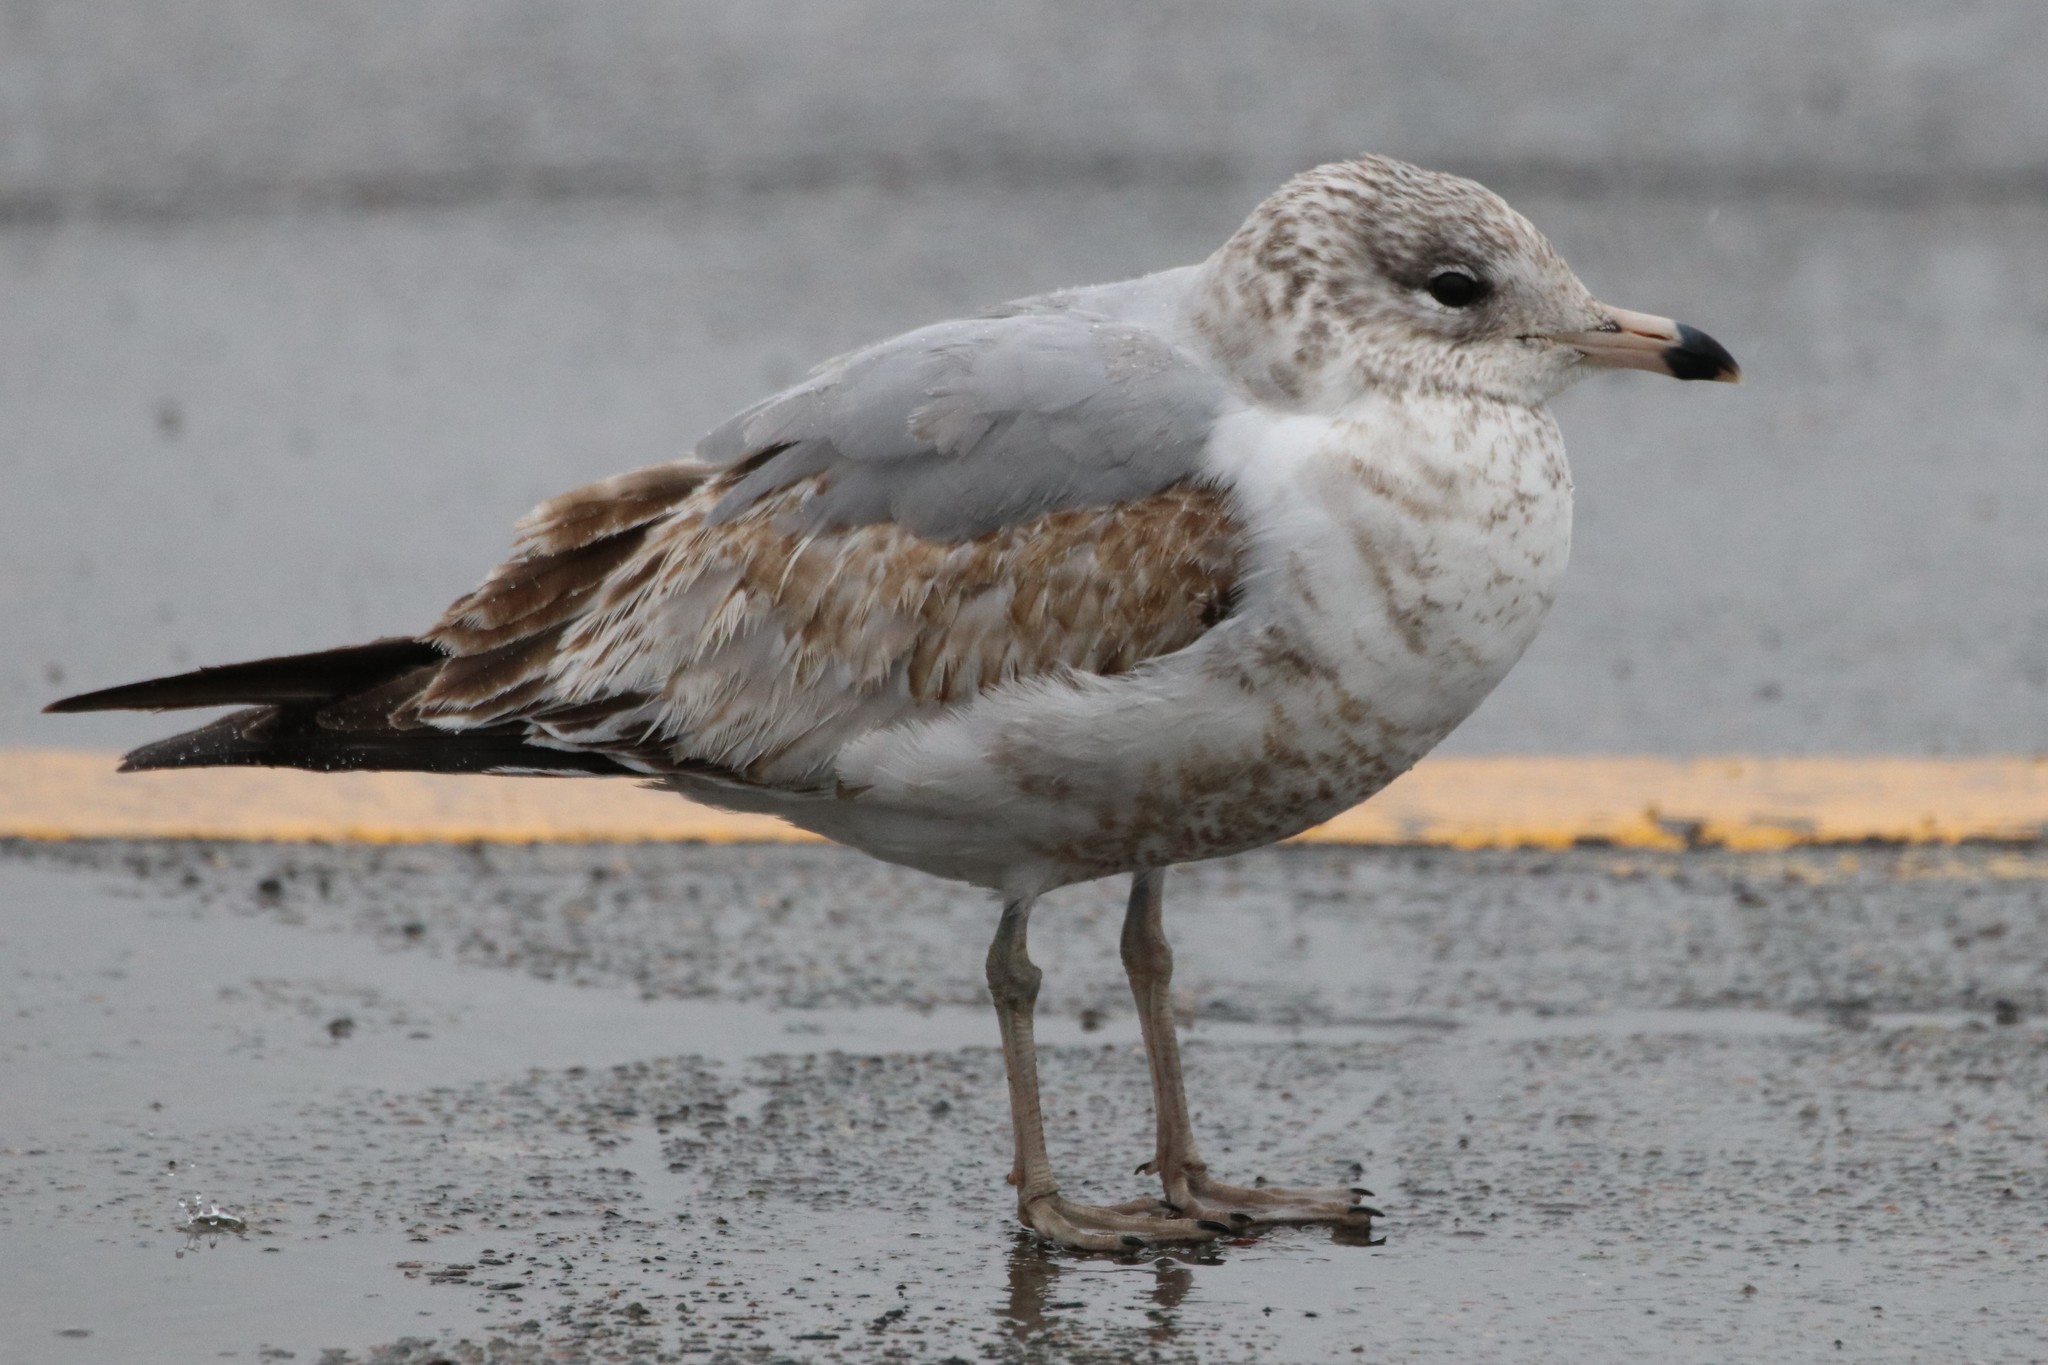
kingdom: Animalia
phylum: Chordata
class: Aves
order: Charadriiformes
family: Laridae
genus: Larus
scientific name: Larus delawarensis
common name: Ring-billed gull
